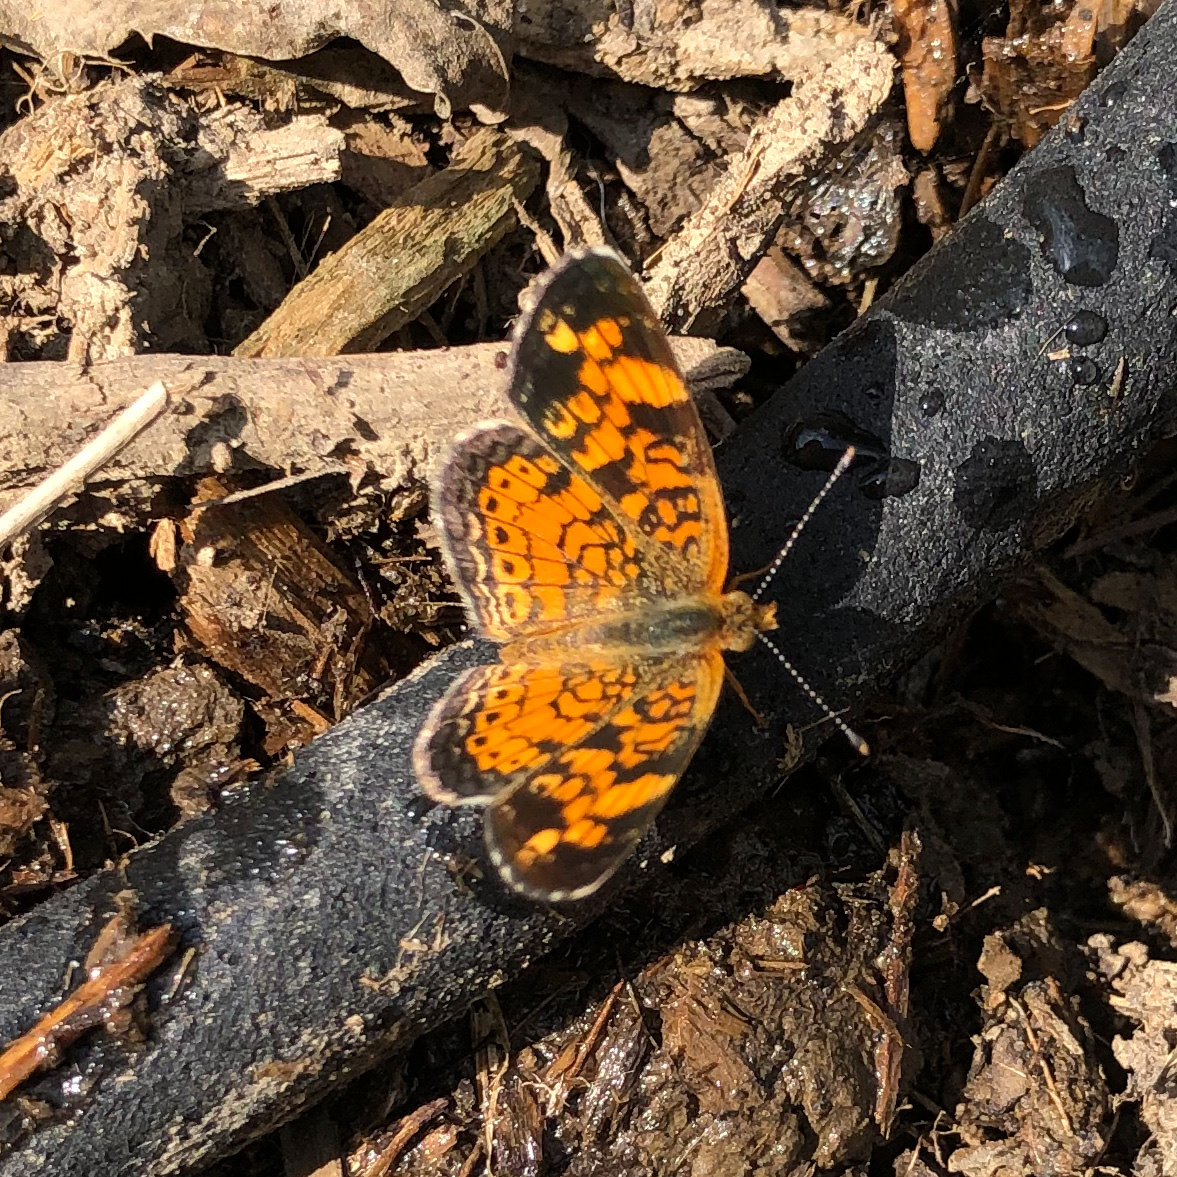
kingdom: Animalia
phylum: Arthropoda
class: Insecta
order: Lepidoptera
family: Nymphalidae
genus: Phyciodes
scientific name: Phyciodes tharos
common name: Pearl crescent
